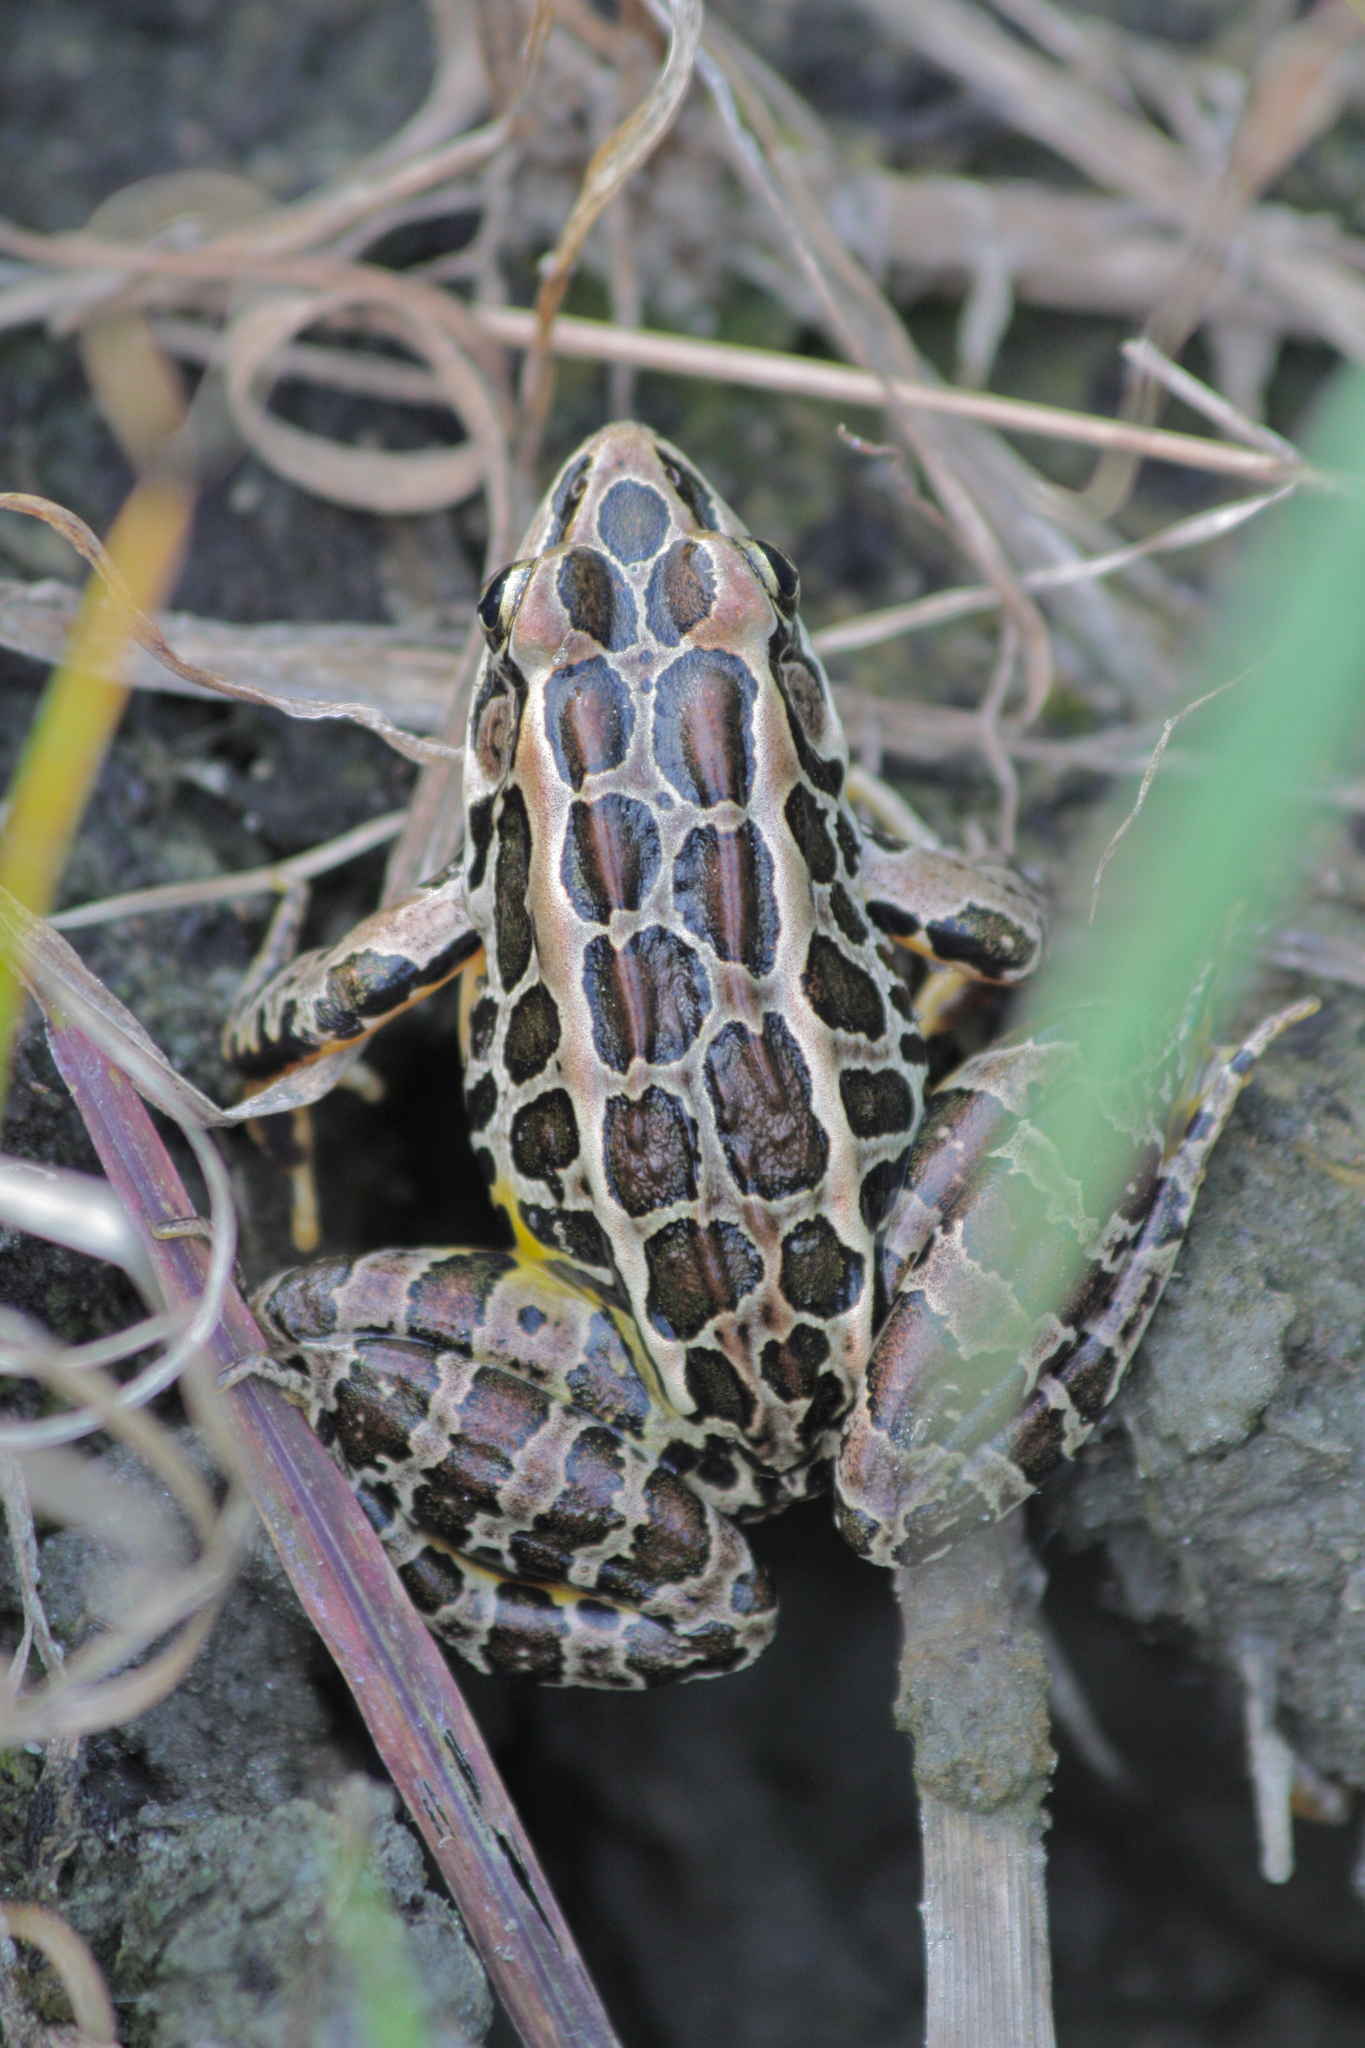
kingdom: Animalia
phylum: Chordata
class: Amphibia
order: Anura
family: Ranidae
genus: Lithobates
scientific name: Lithobates palustris
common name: Pickerel frog
